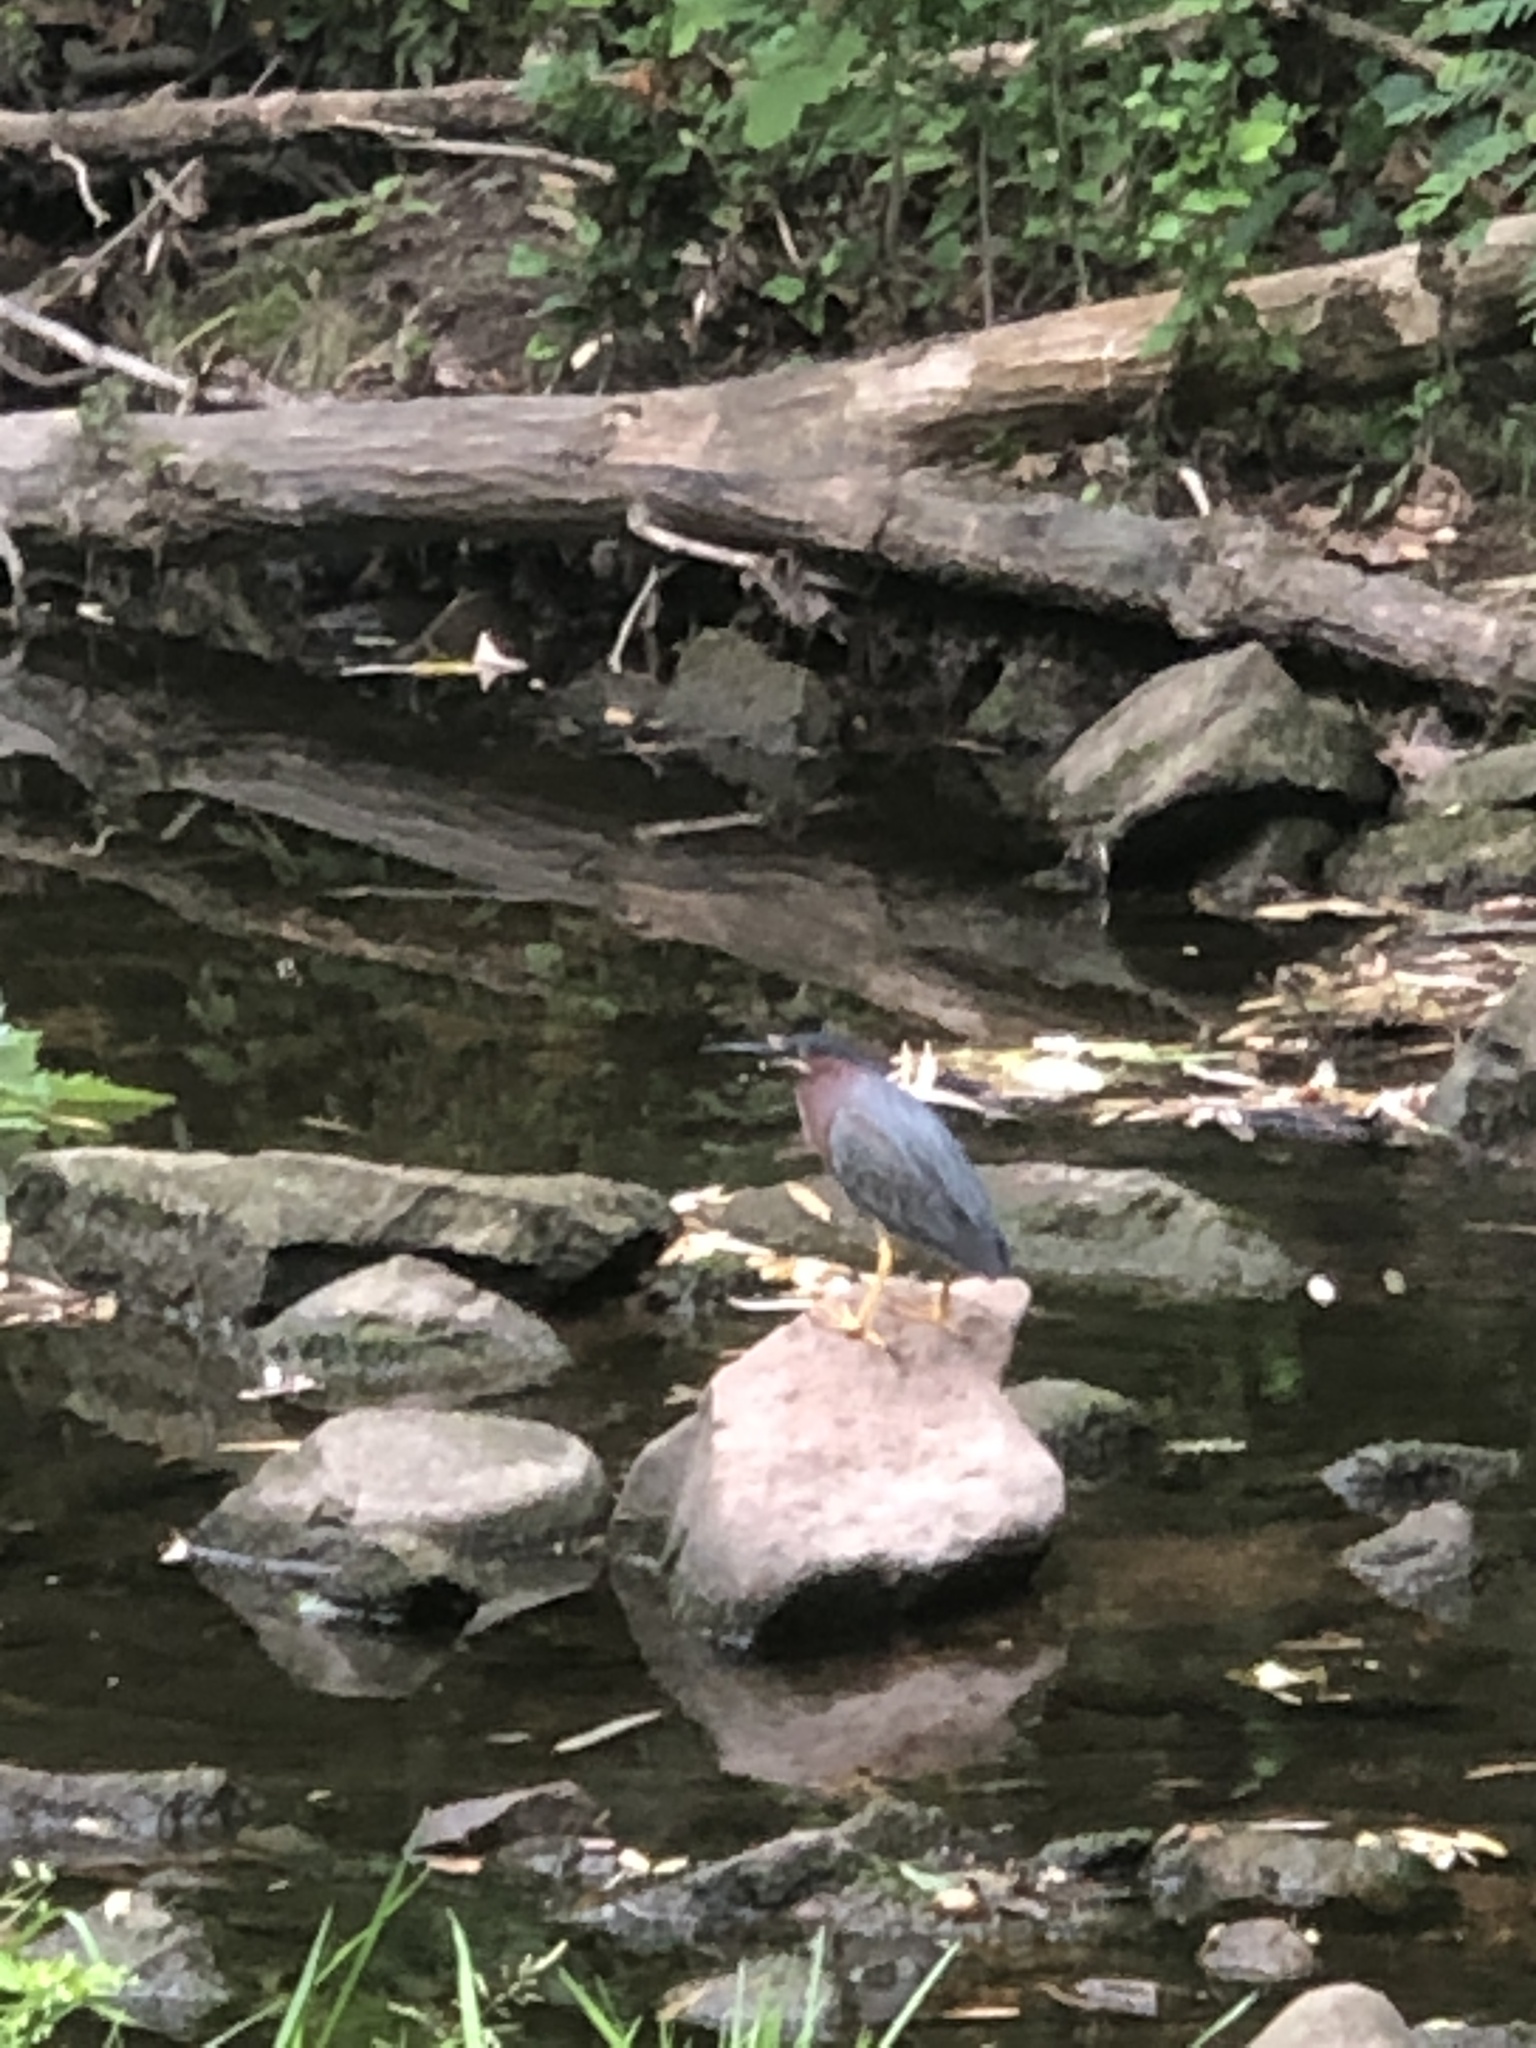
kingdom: Animalia
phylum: Chordata
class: Aves
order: Pelecaniformes
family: Ardeidae
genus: Butorides
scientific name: Butorides virescens
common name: Green heron
